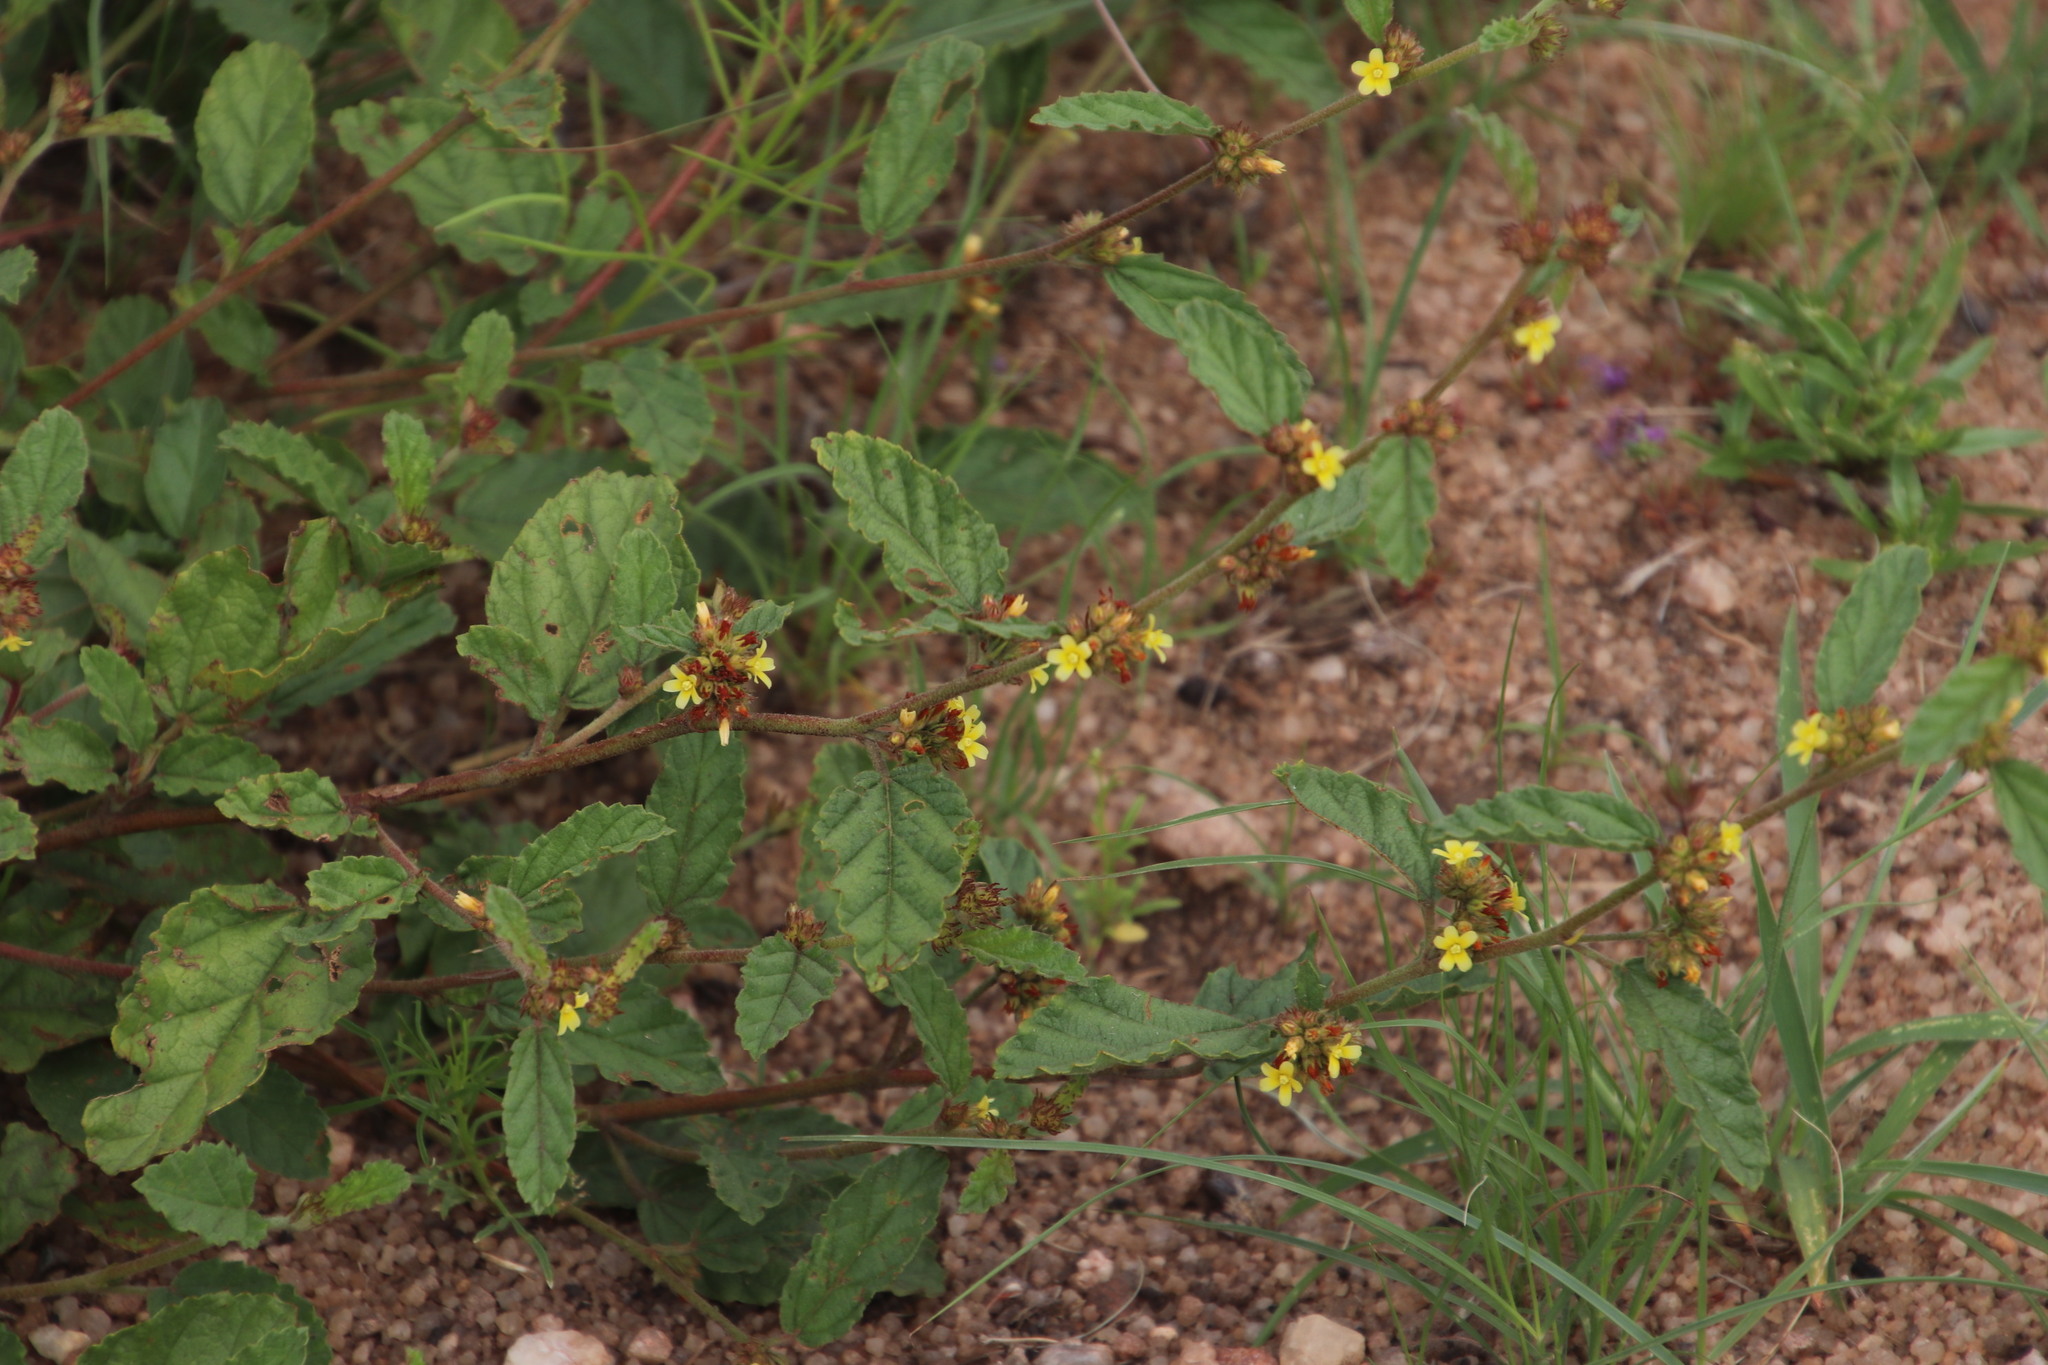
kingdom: Plantae
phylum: Tracheophyta
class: Magnoliopsida
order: Malvales
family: Malvaceae
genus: Waltheria
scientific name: Waltheria indica
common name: Leather-coat
